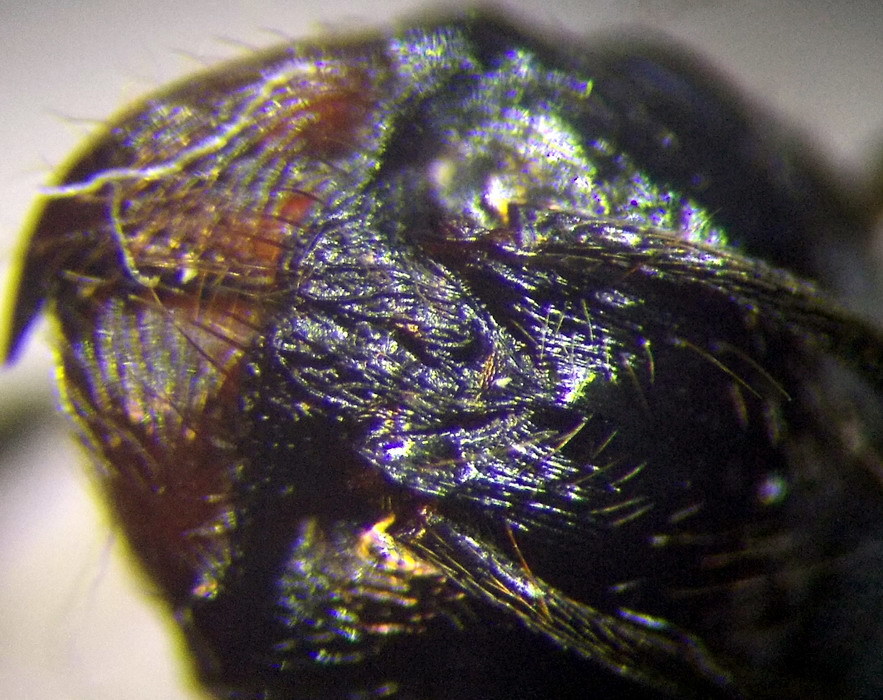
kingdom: Animalia
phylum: Arthropoda
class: Insecta
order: Hymenoptera
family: Formicidae
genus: Messor
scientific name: Messor structor
